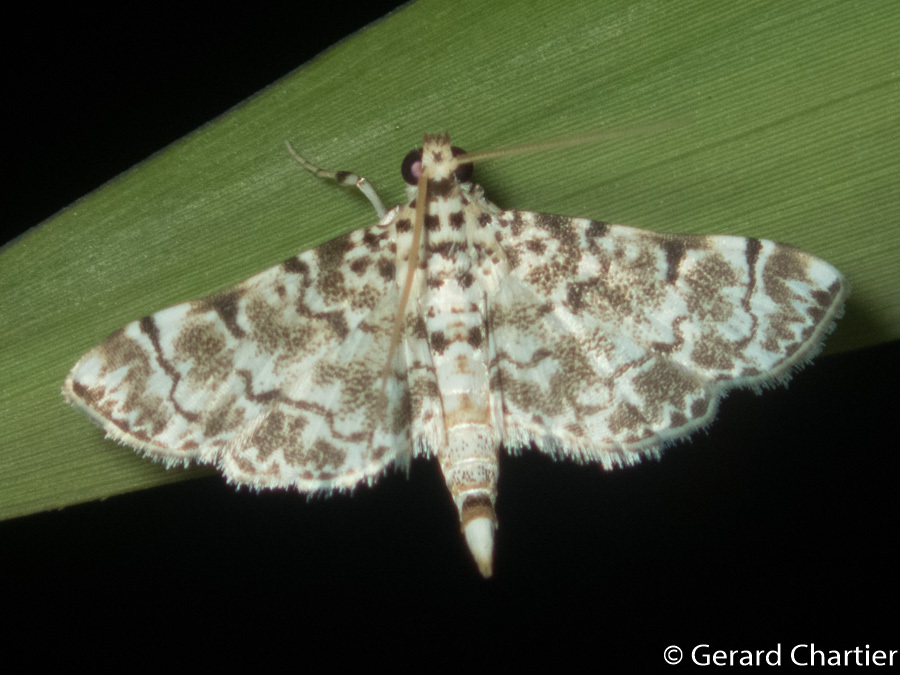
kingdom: Animalia
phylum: Arthropoda
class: Insecta
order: Lepidoptera
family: Crambidae
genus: Metoeca
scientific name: Metoeca foedalis
